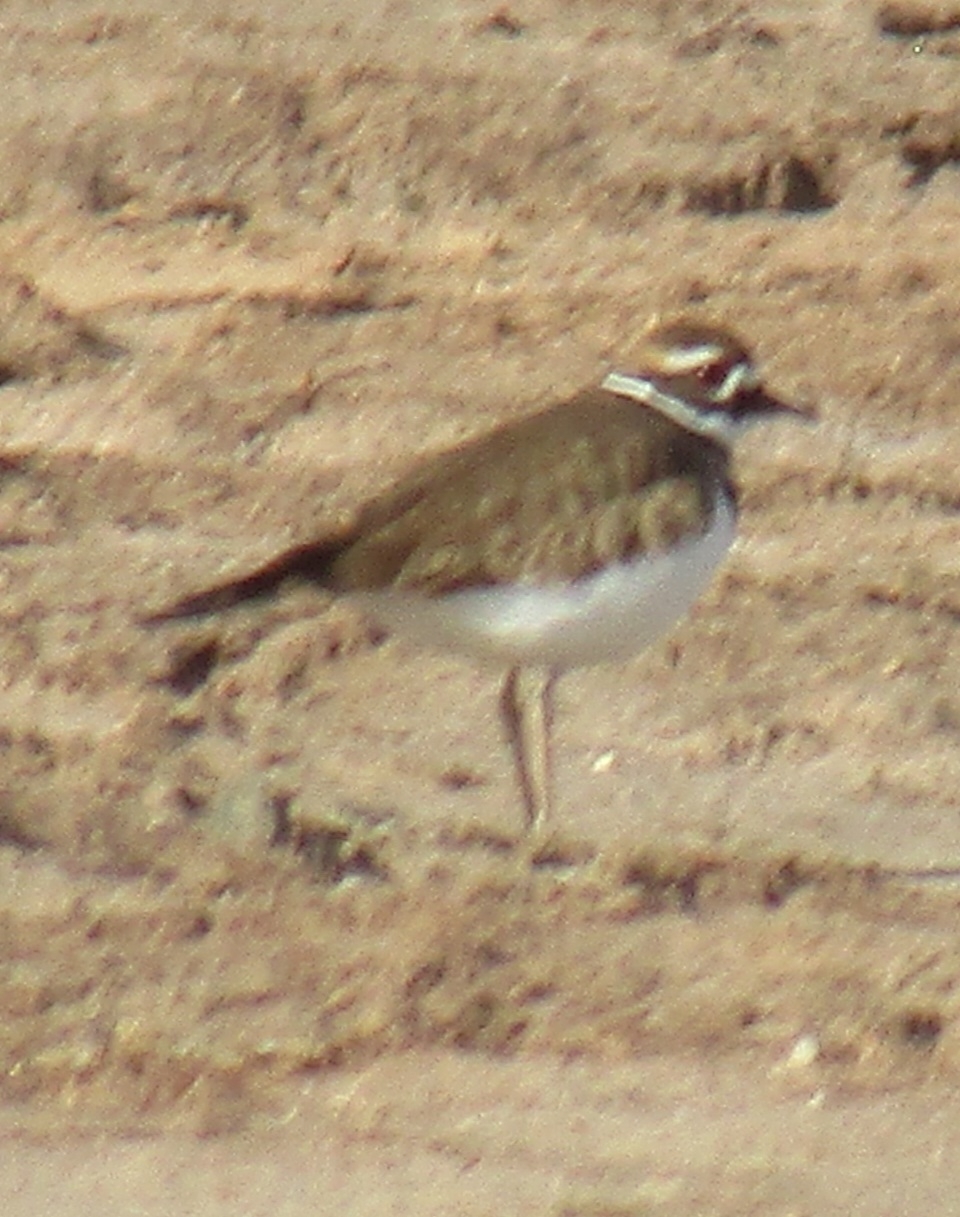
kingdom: Animalia
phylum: Chordata
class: Aves
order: Charadriiformes
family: Charadriidae
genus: Charadrius
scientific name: Charadrius vociferus
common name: Killdeer
